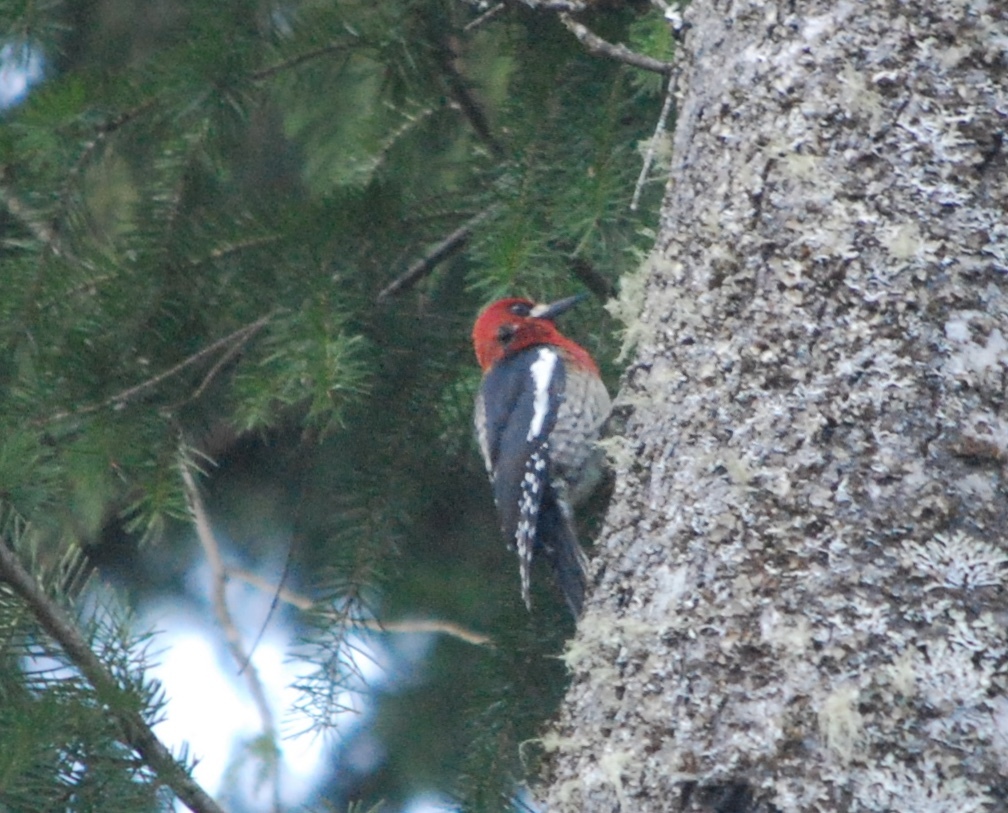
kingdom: Animalia
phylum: Chordata
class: Aves
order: Piciformes
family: Picidae
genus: Sphyrapicus
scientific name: Sphyrapicus ruber
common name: Red-breasted sapsucker
